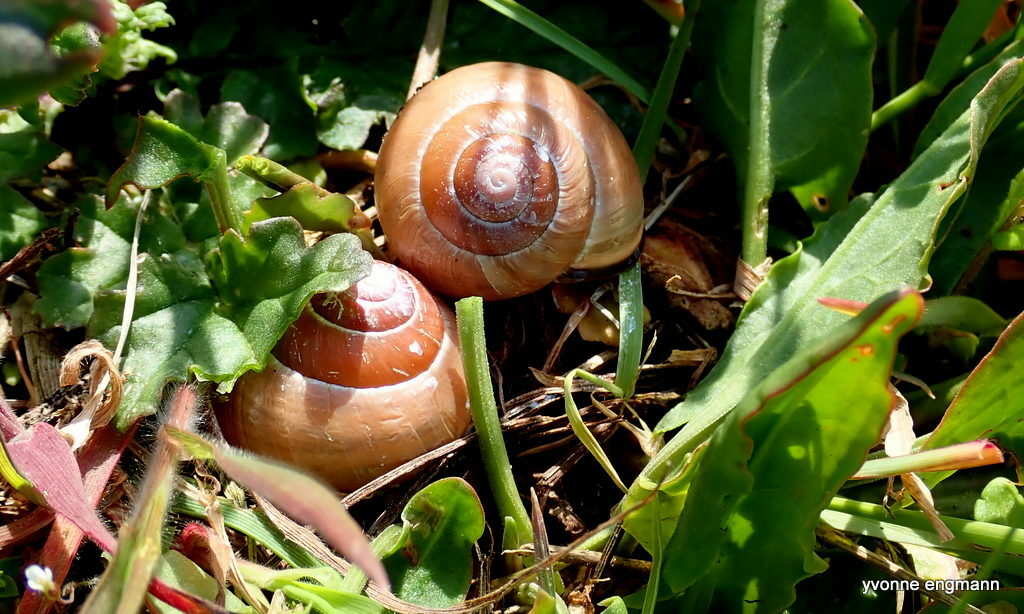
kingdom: Animalia
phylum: Mollusca
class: Gastropoda
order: Stylommatophora
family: Helicidae
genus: Cepaea
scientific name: Cepaea nemoralis
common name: Grovesnail
